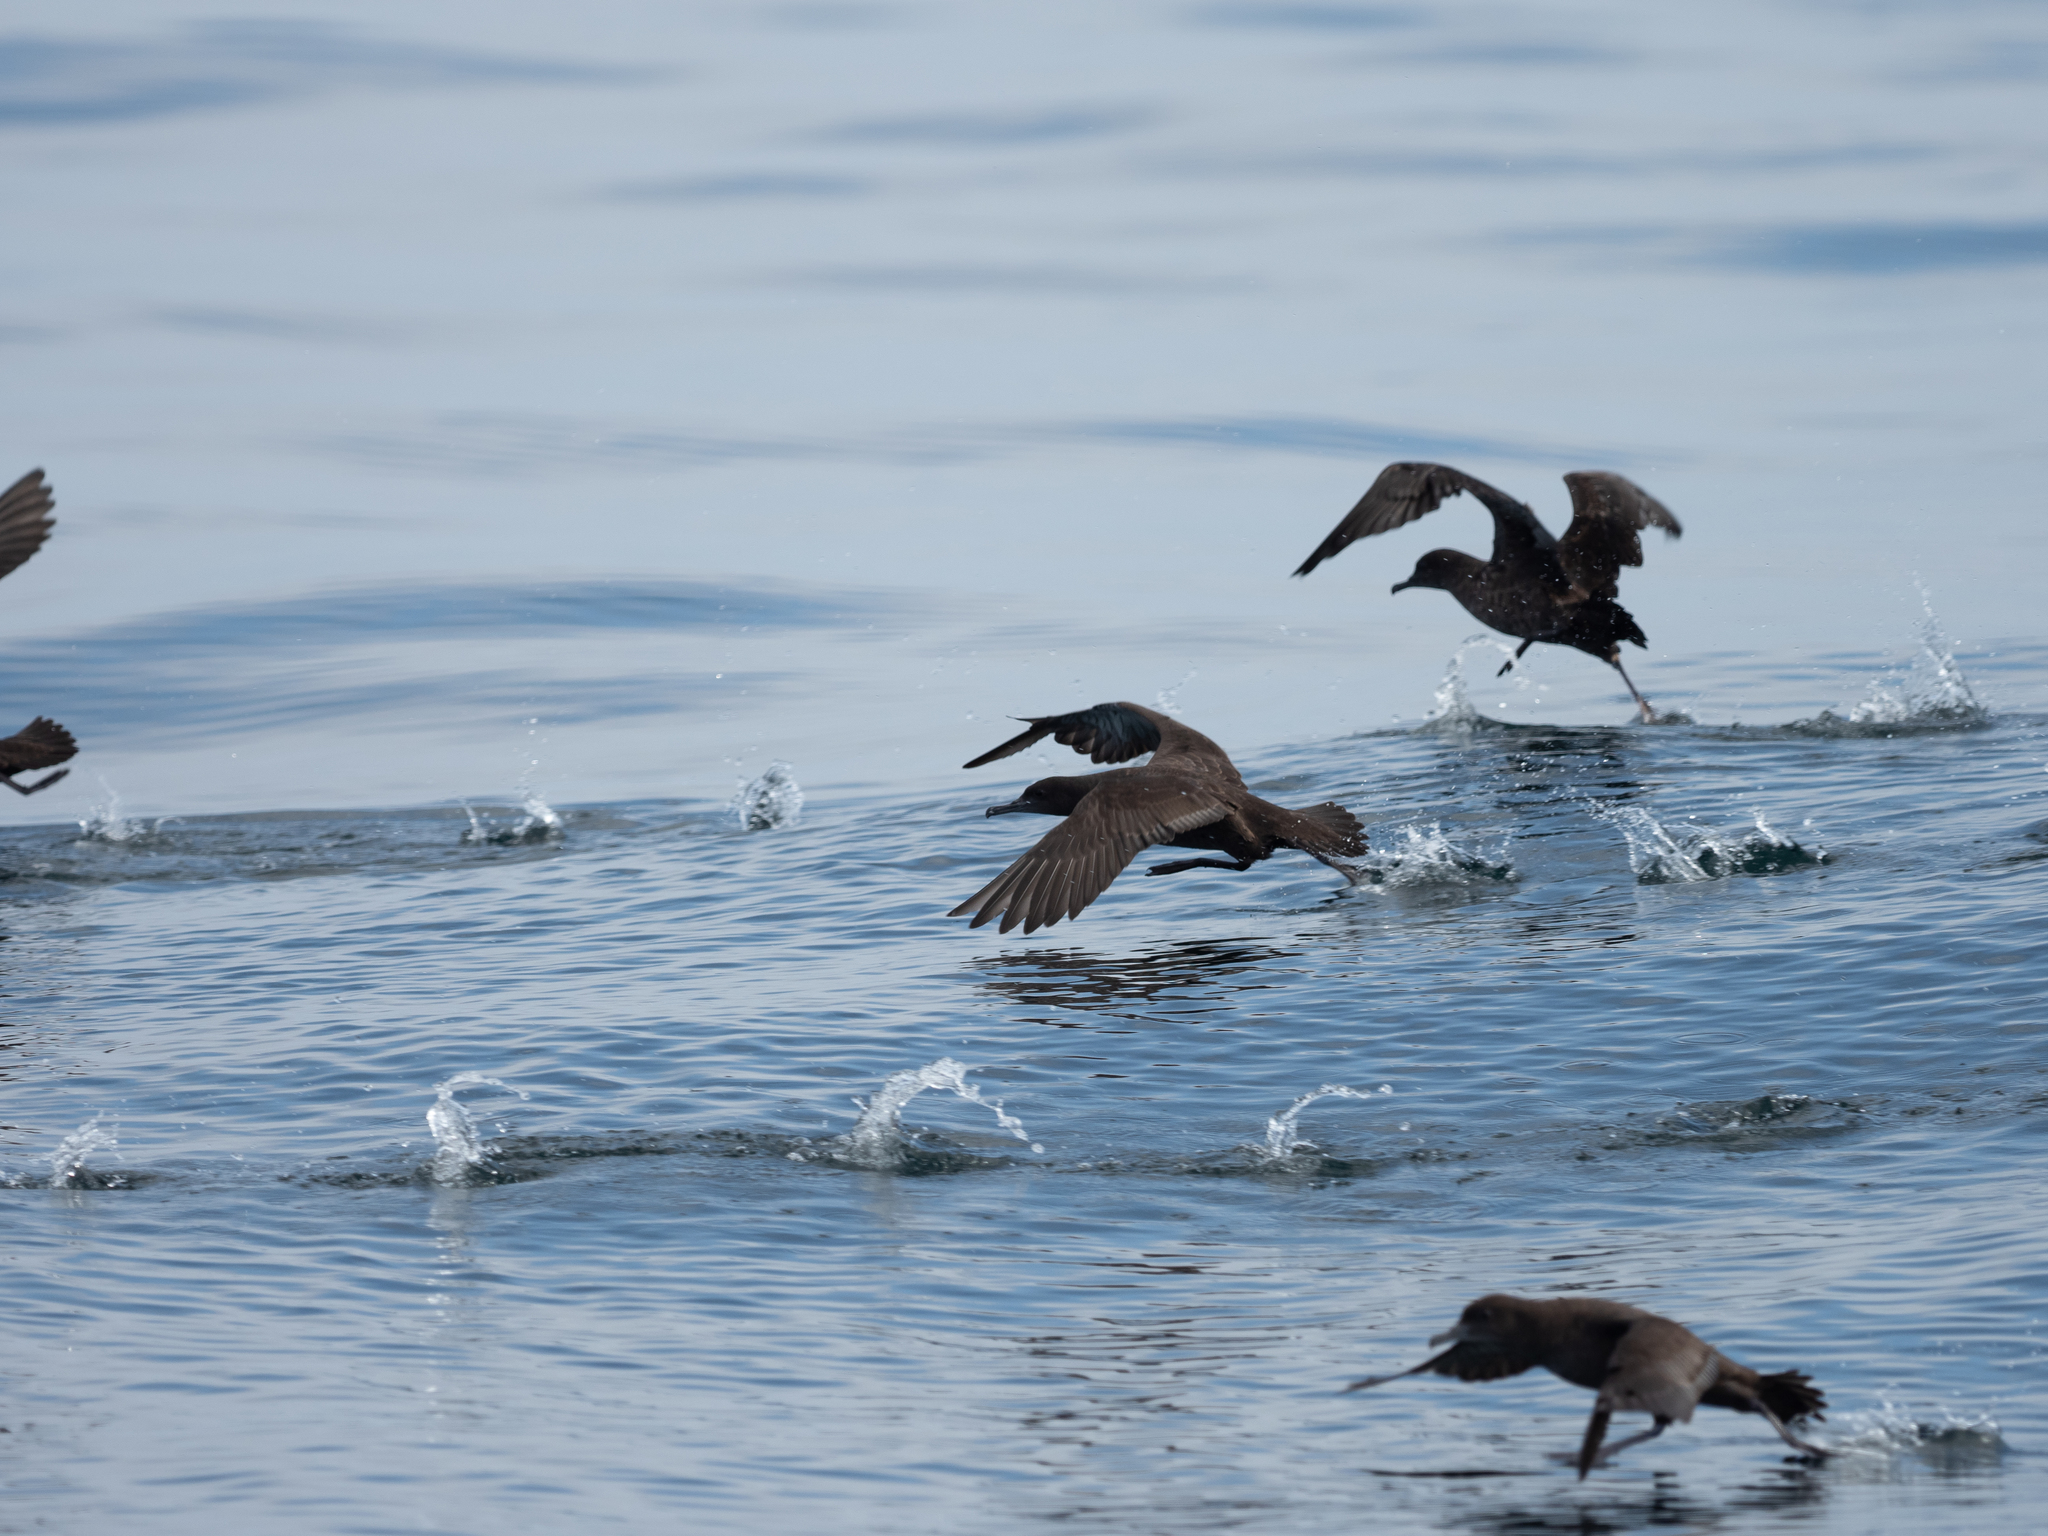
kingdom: Animalia
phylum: Chordata
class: Aves
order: Procellariiformes
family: Procellariidae
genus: Puffinus
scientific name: Puffinus griseus
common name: Sooty shearwater
